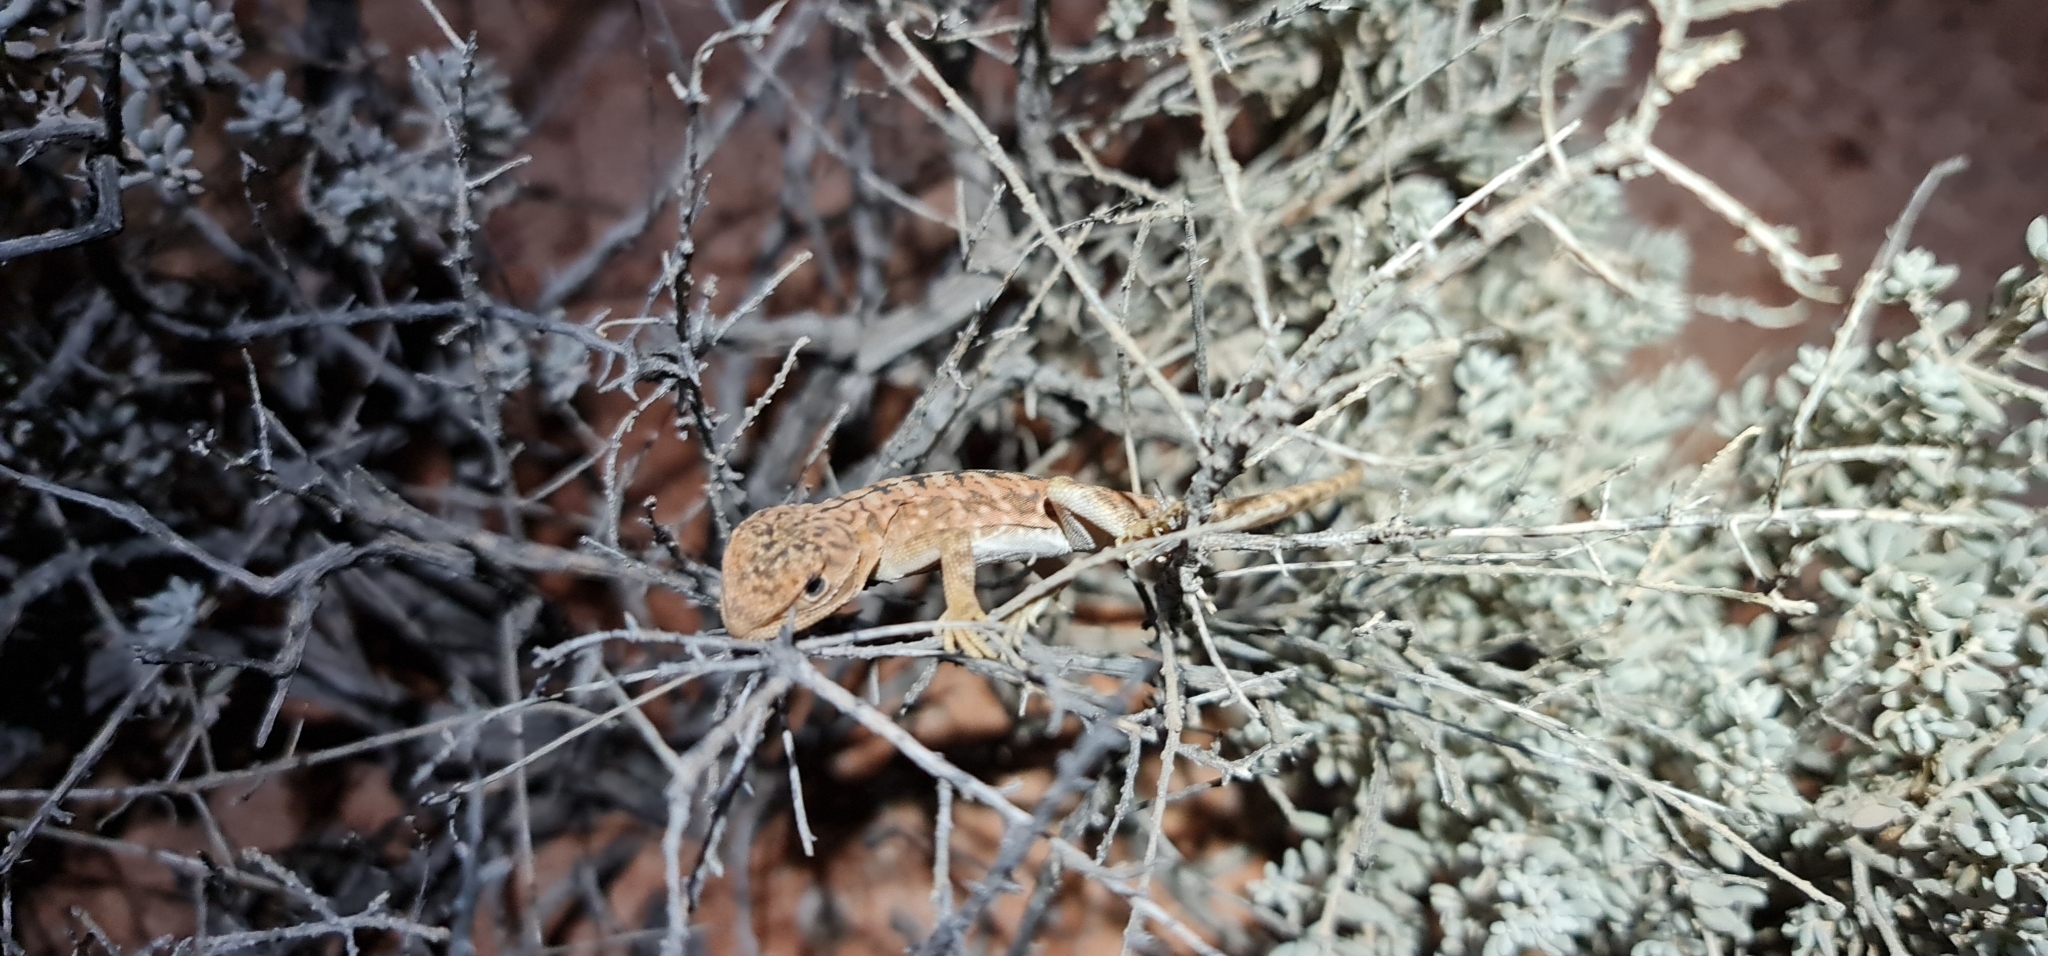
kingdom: Animalia
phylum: Chordata
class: Squamata
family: Agamidae
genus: Ctenophorus
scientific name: Ctenophorus pictus
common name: Painted dragon
